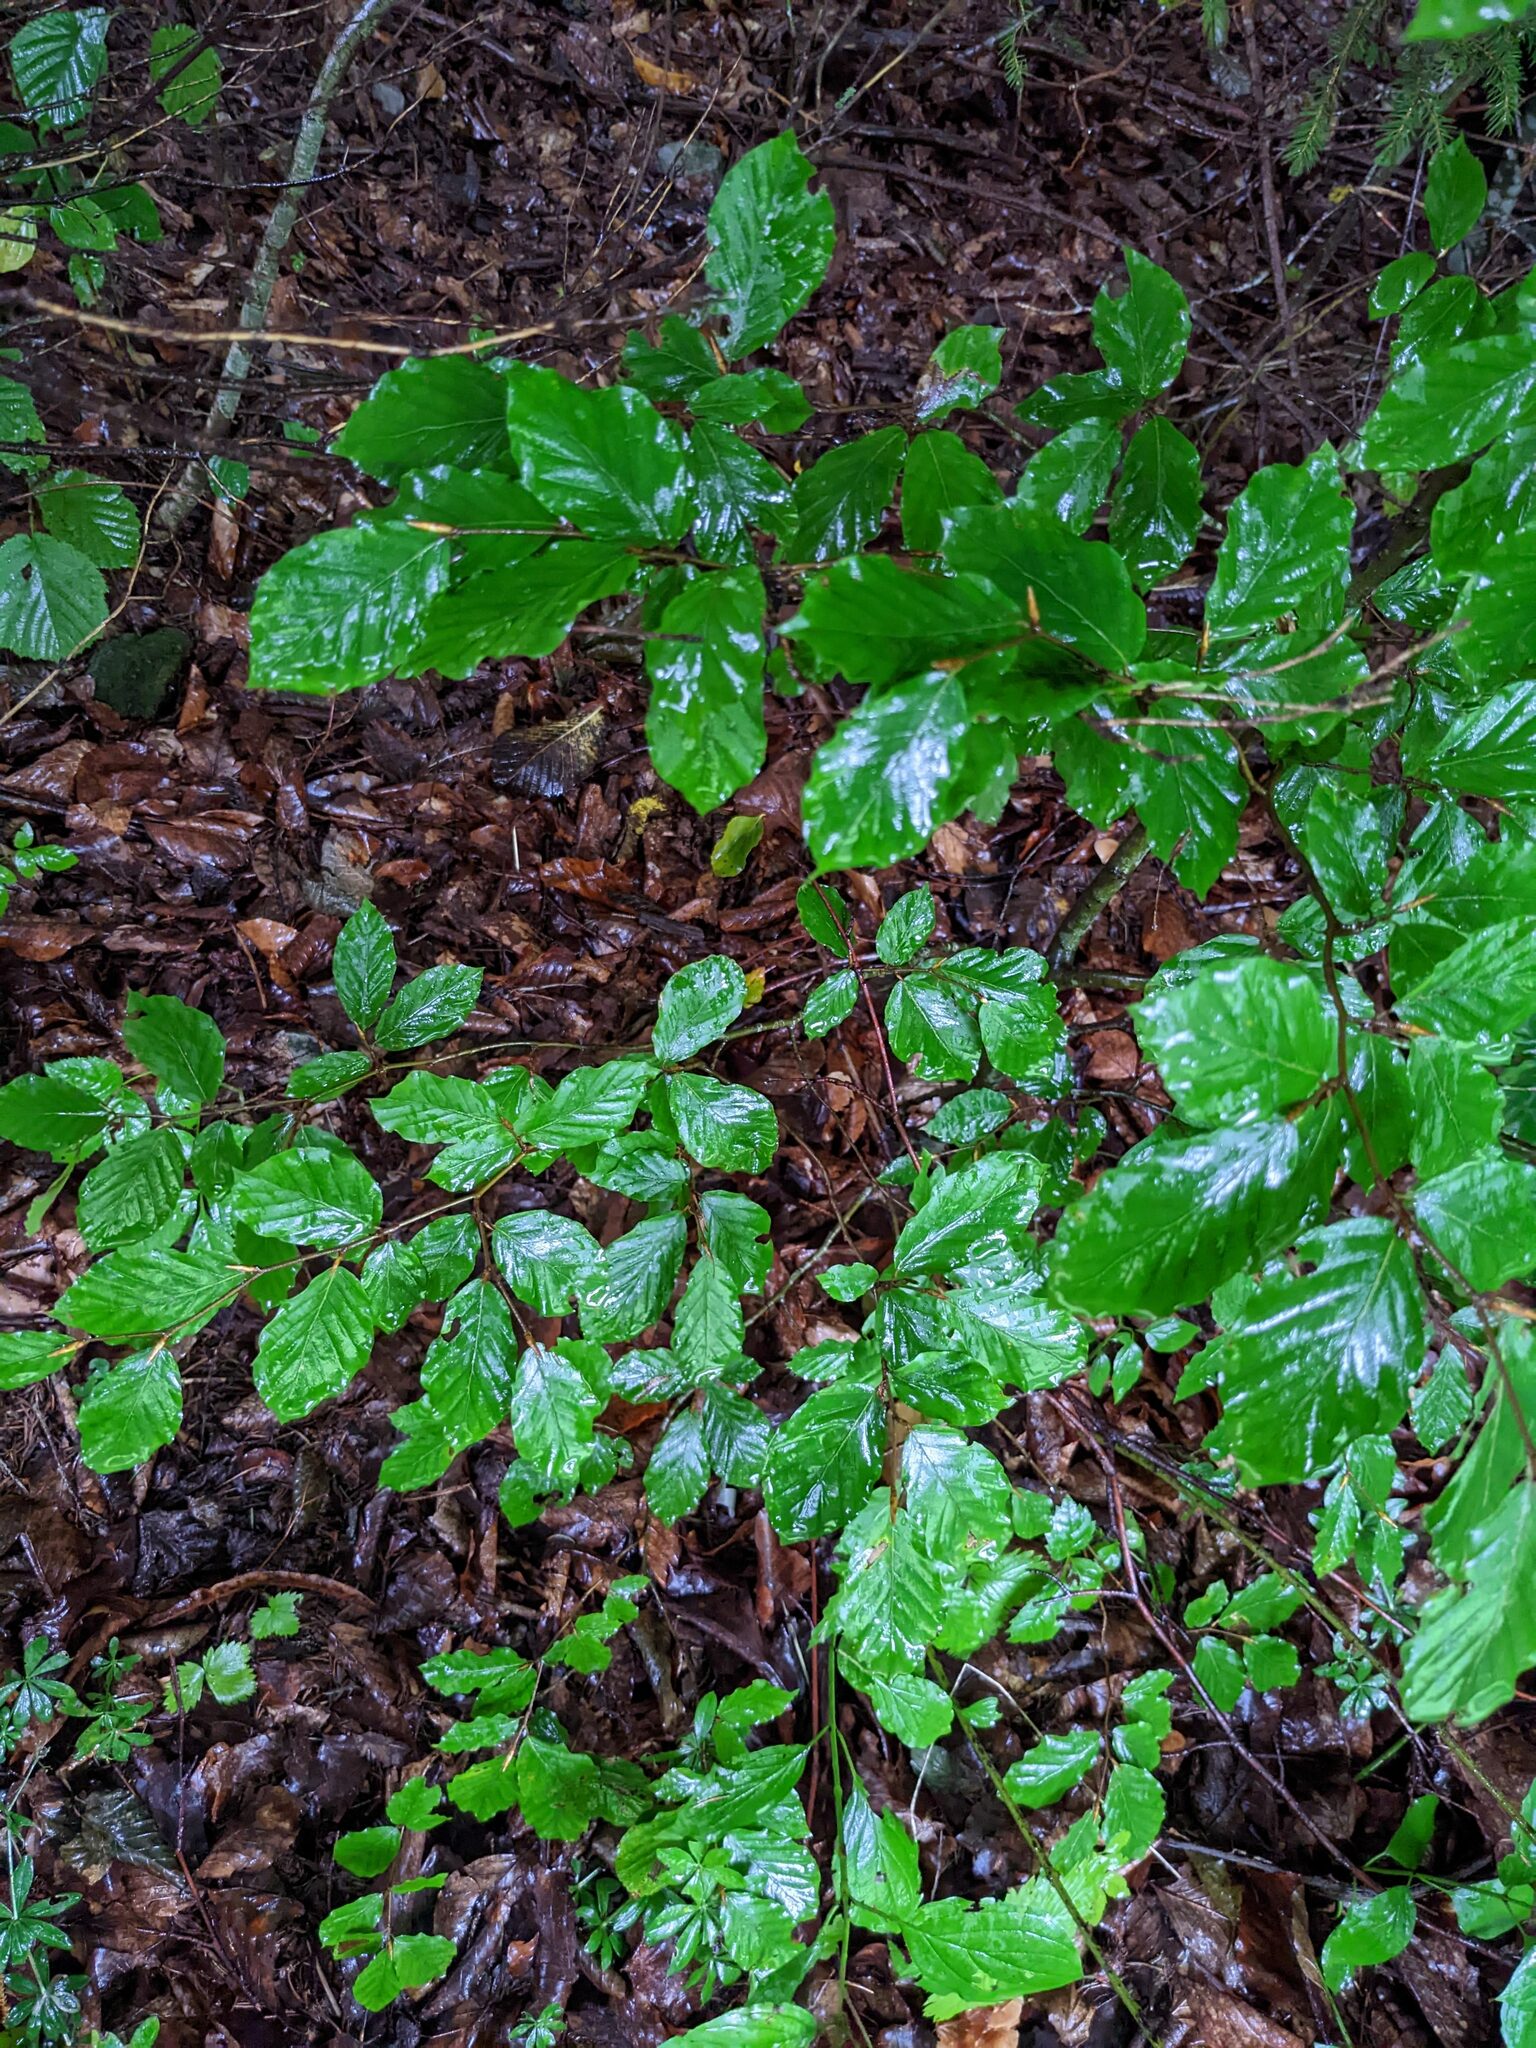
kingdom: Plantae
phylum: Tracheophyta
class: Magnoliopsida
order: Fagales
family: Fagaceae
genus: Fagus
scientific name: Fagus sylvatica
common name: Beech
